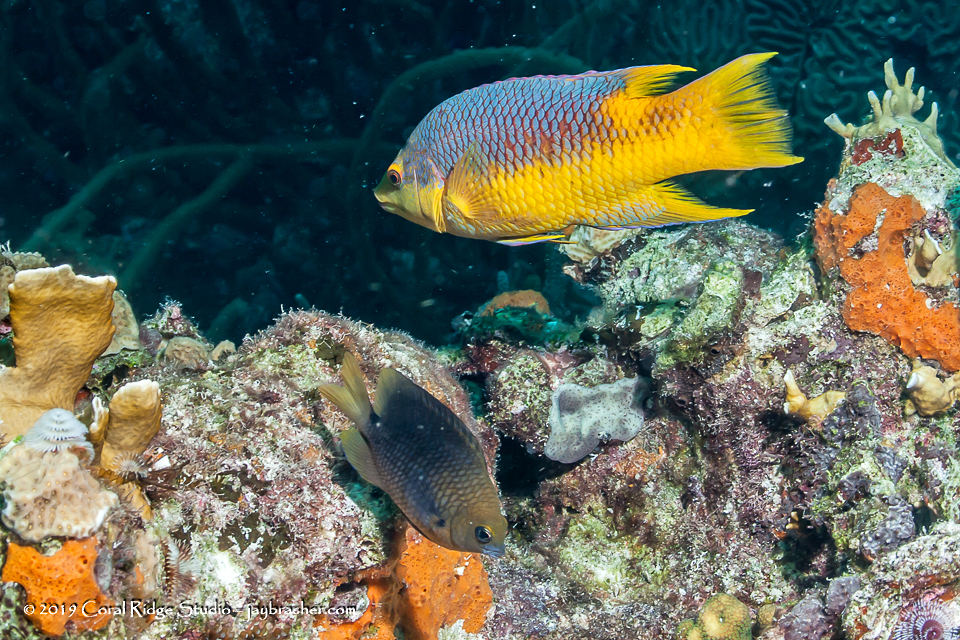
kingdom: Animalia
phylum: Chordata
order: Perciformes
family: Labridae
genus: Bodianus
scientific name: Bodianus rufus
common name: Spanish hogfish
